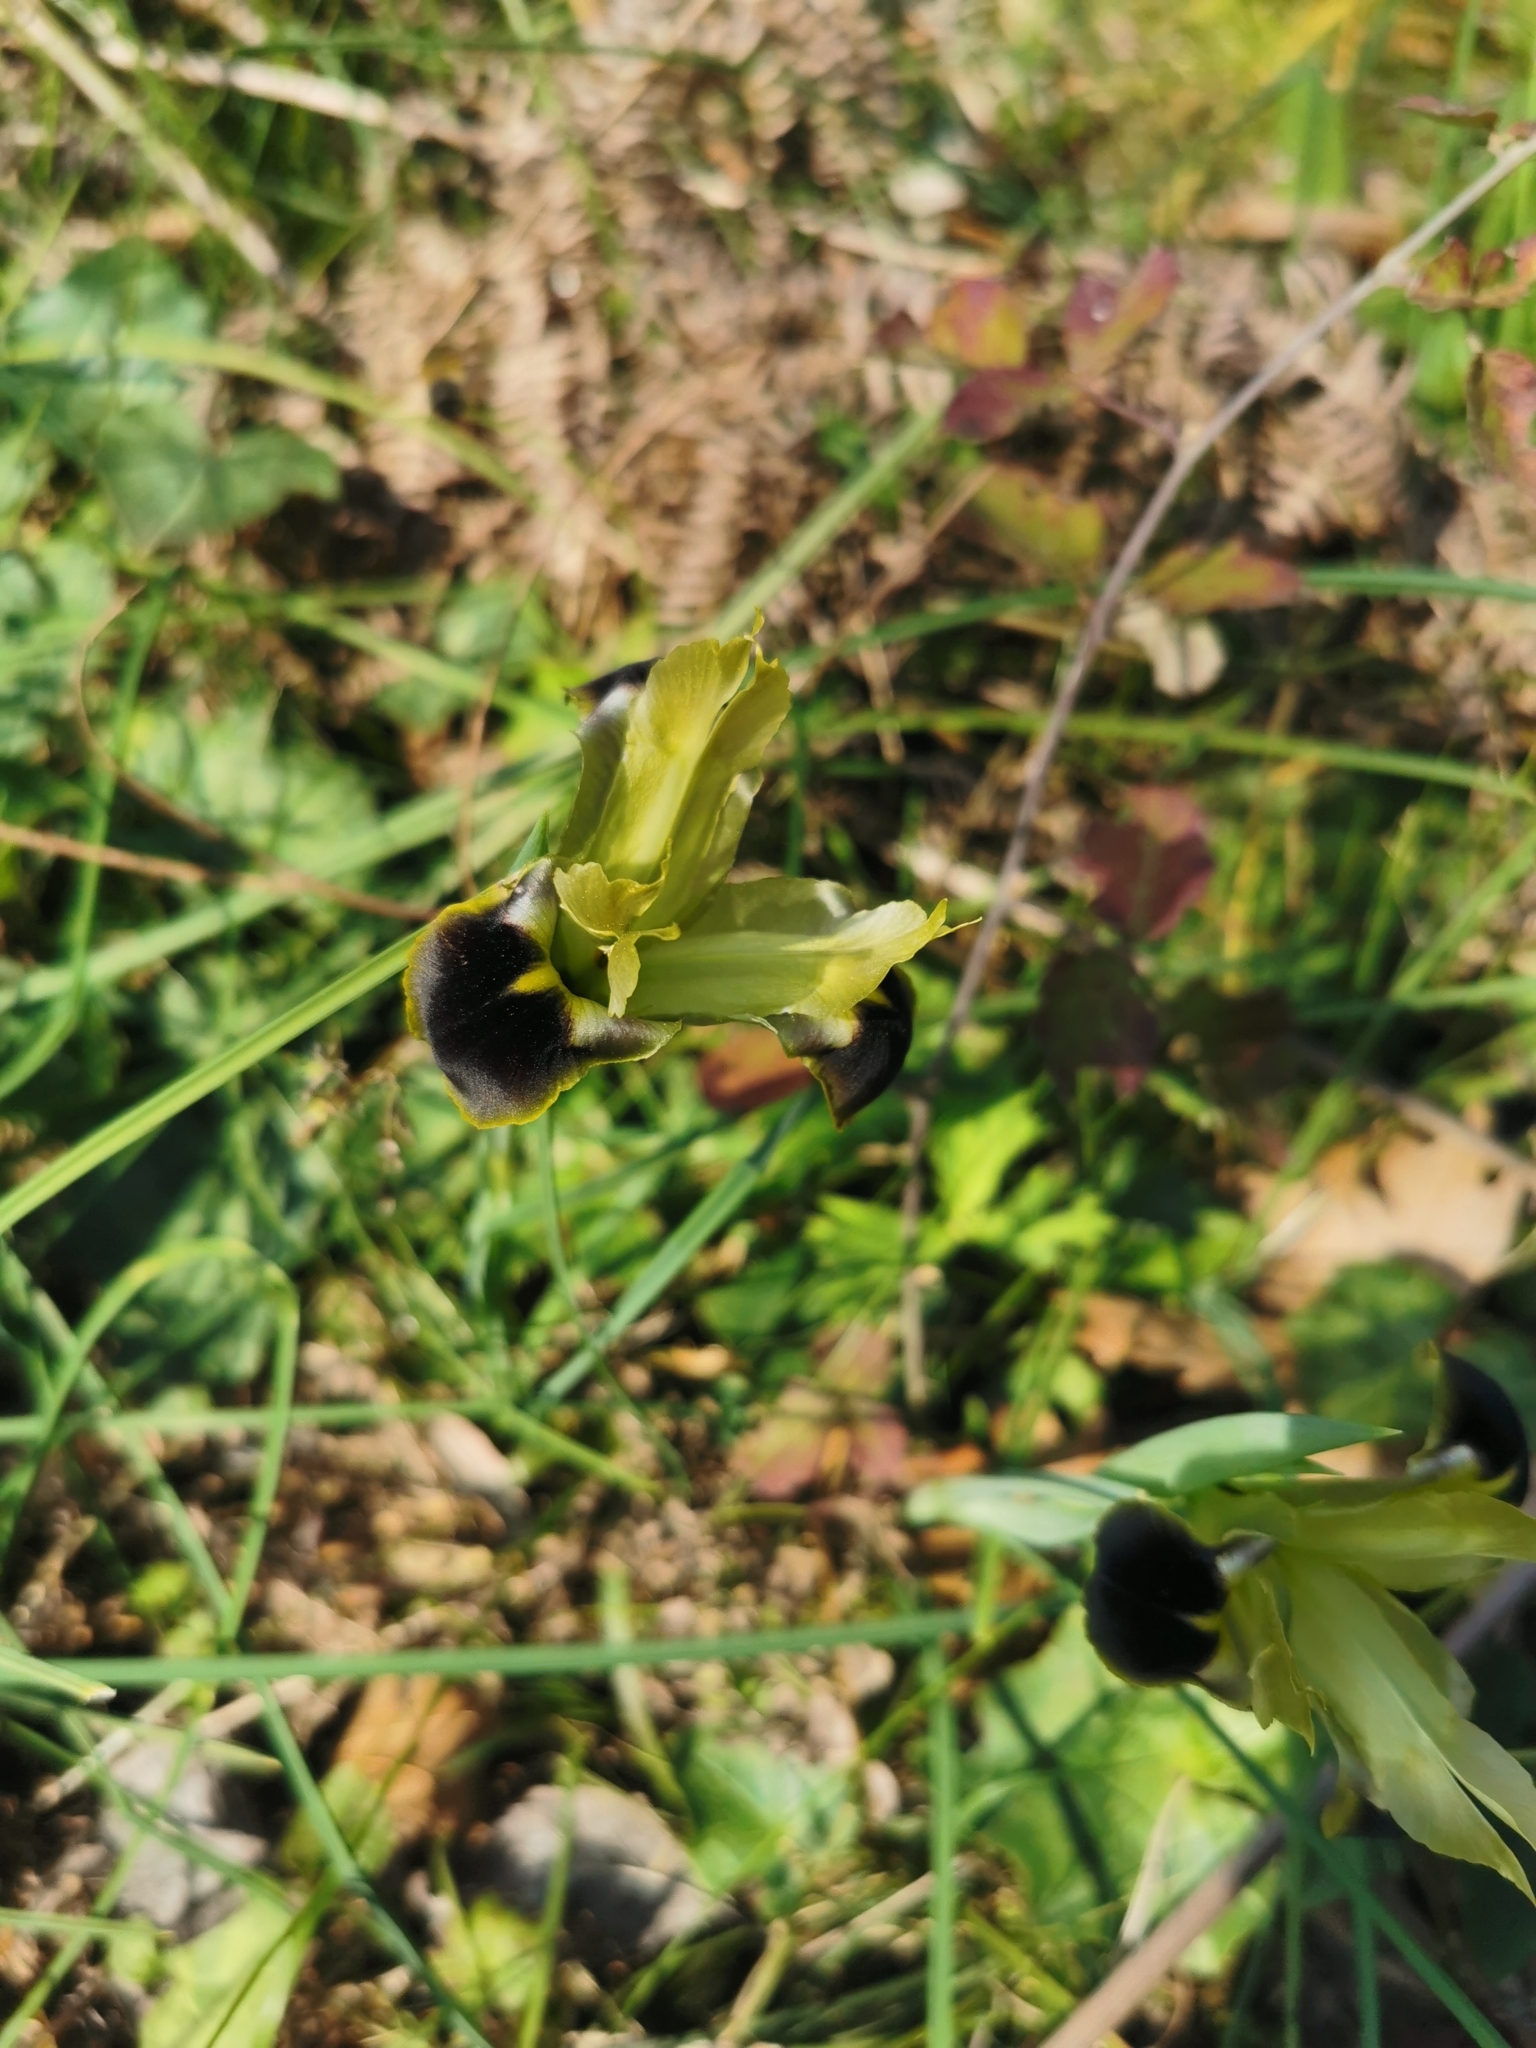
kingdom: Plantae
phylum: Tracheophyta
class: Liliopsida
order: Asparagales
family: Iridaceae
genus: Iris
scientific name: Iris tuberosa
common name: Snake's-head iris
